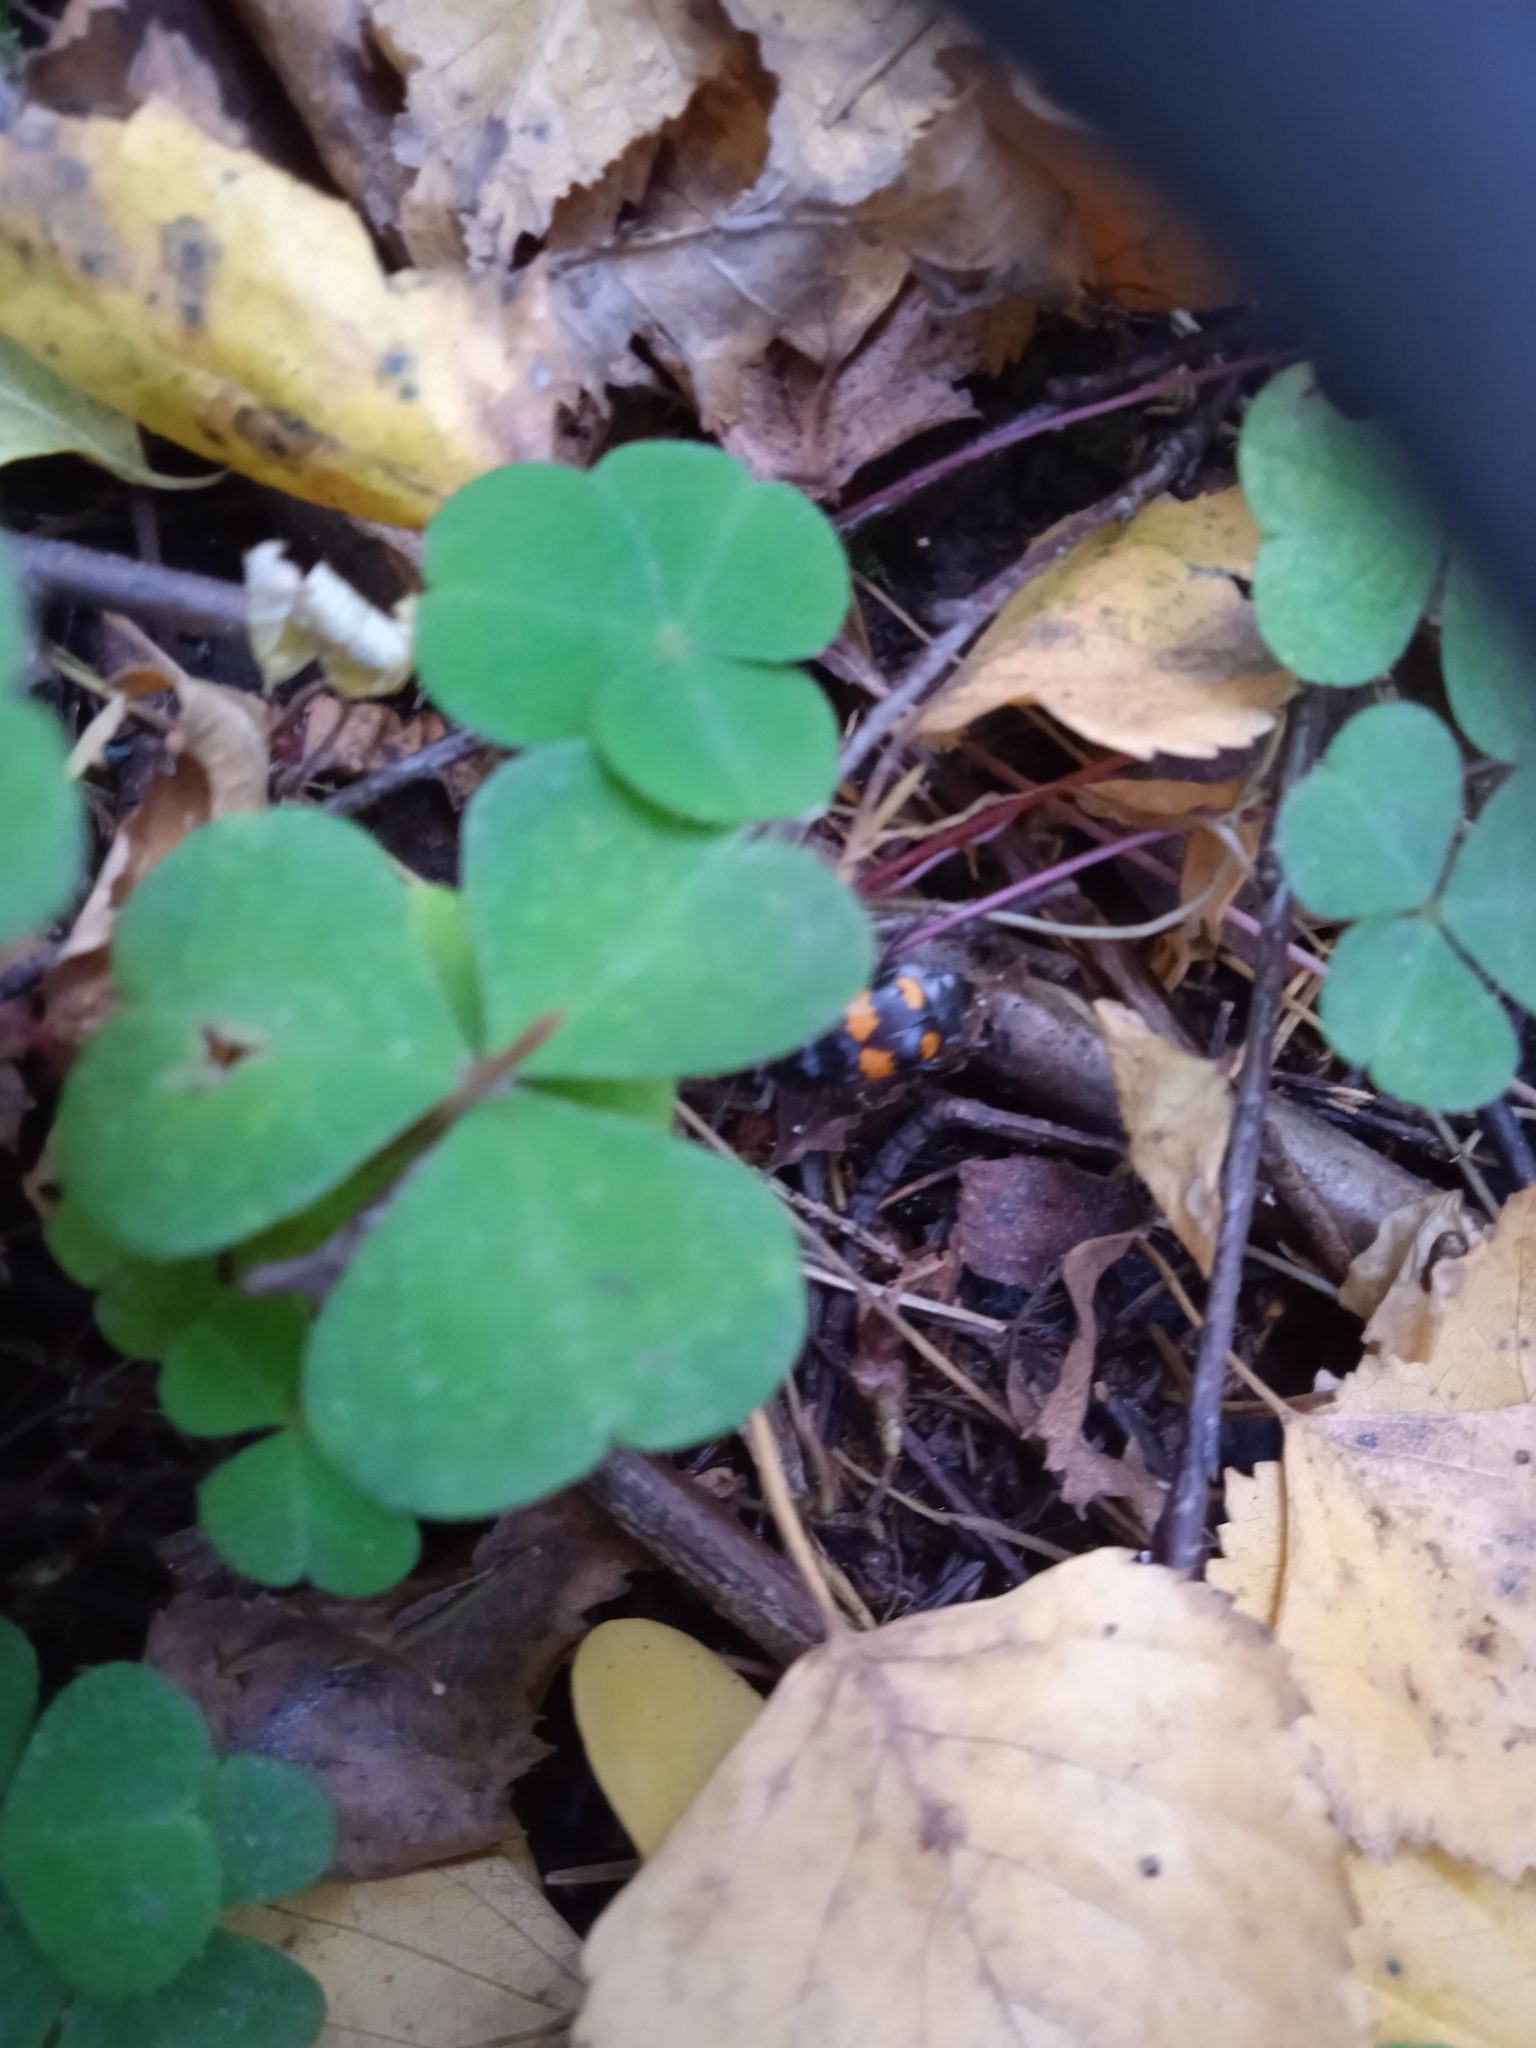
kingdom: Animalia
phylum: Arthropoda
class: Insecta
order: Coleoptera
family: Staphylinidae
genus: Nicrophorus
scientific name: Nicrophorus vespilloides
